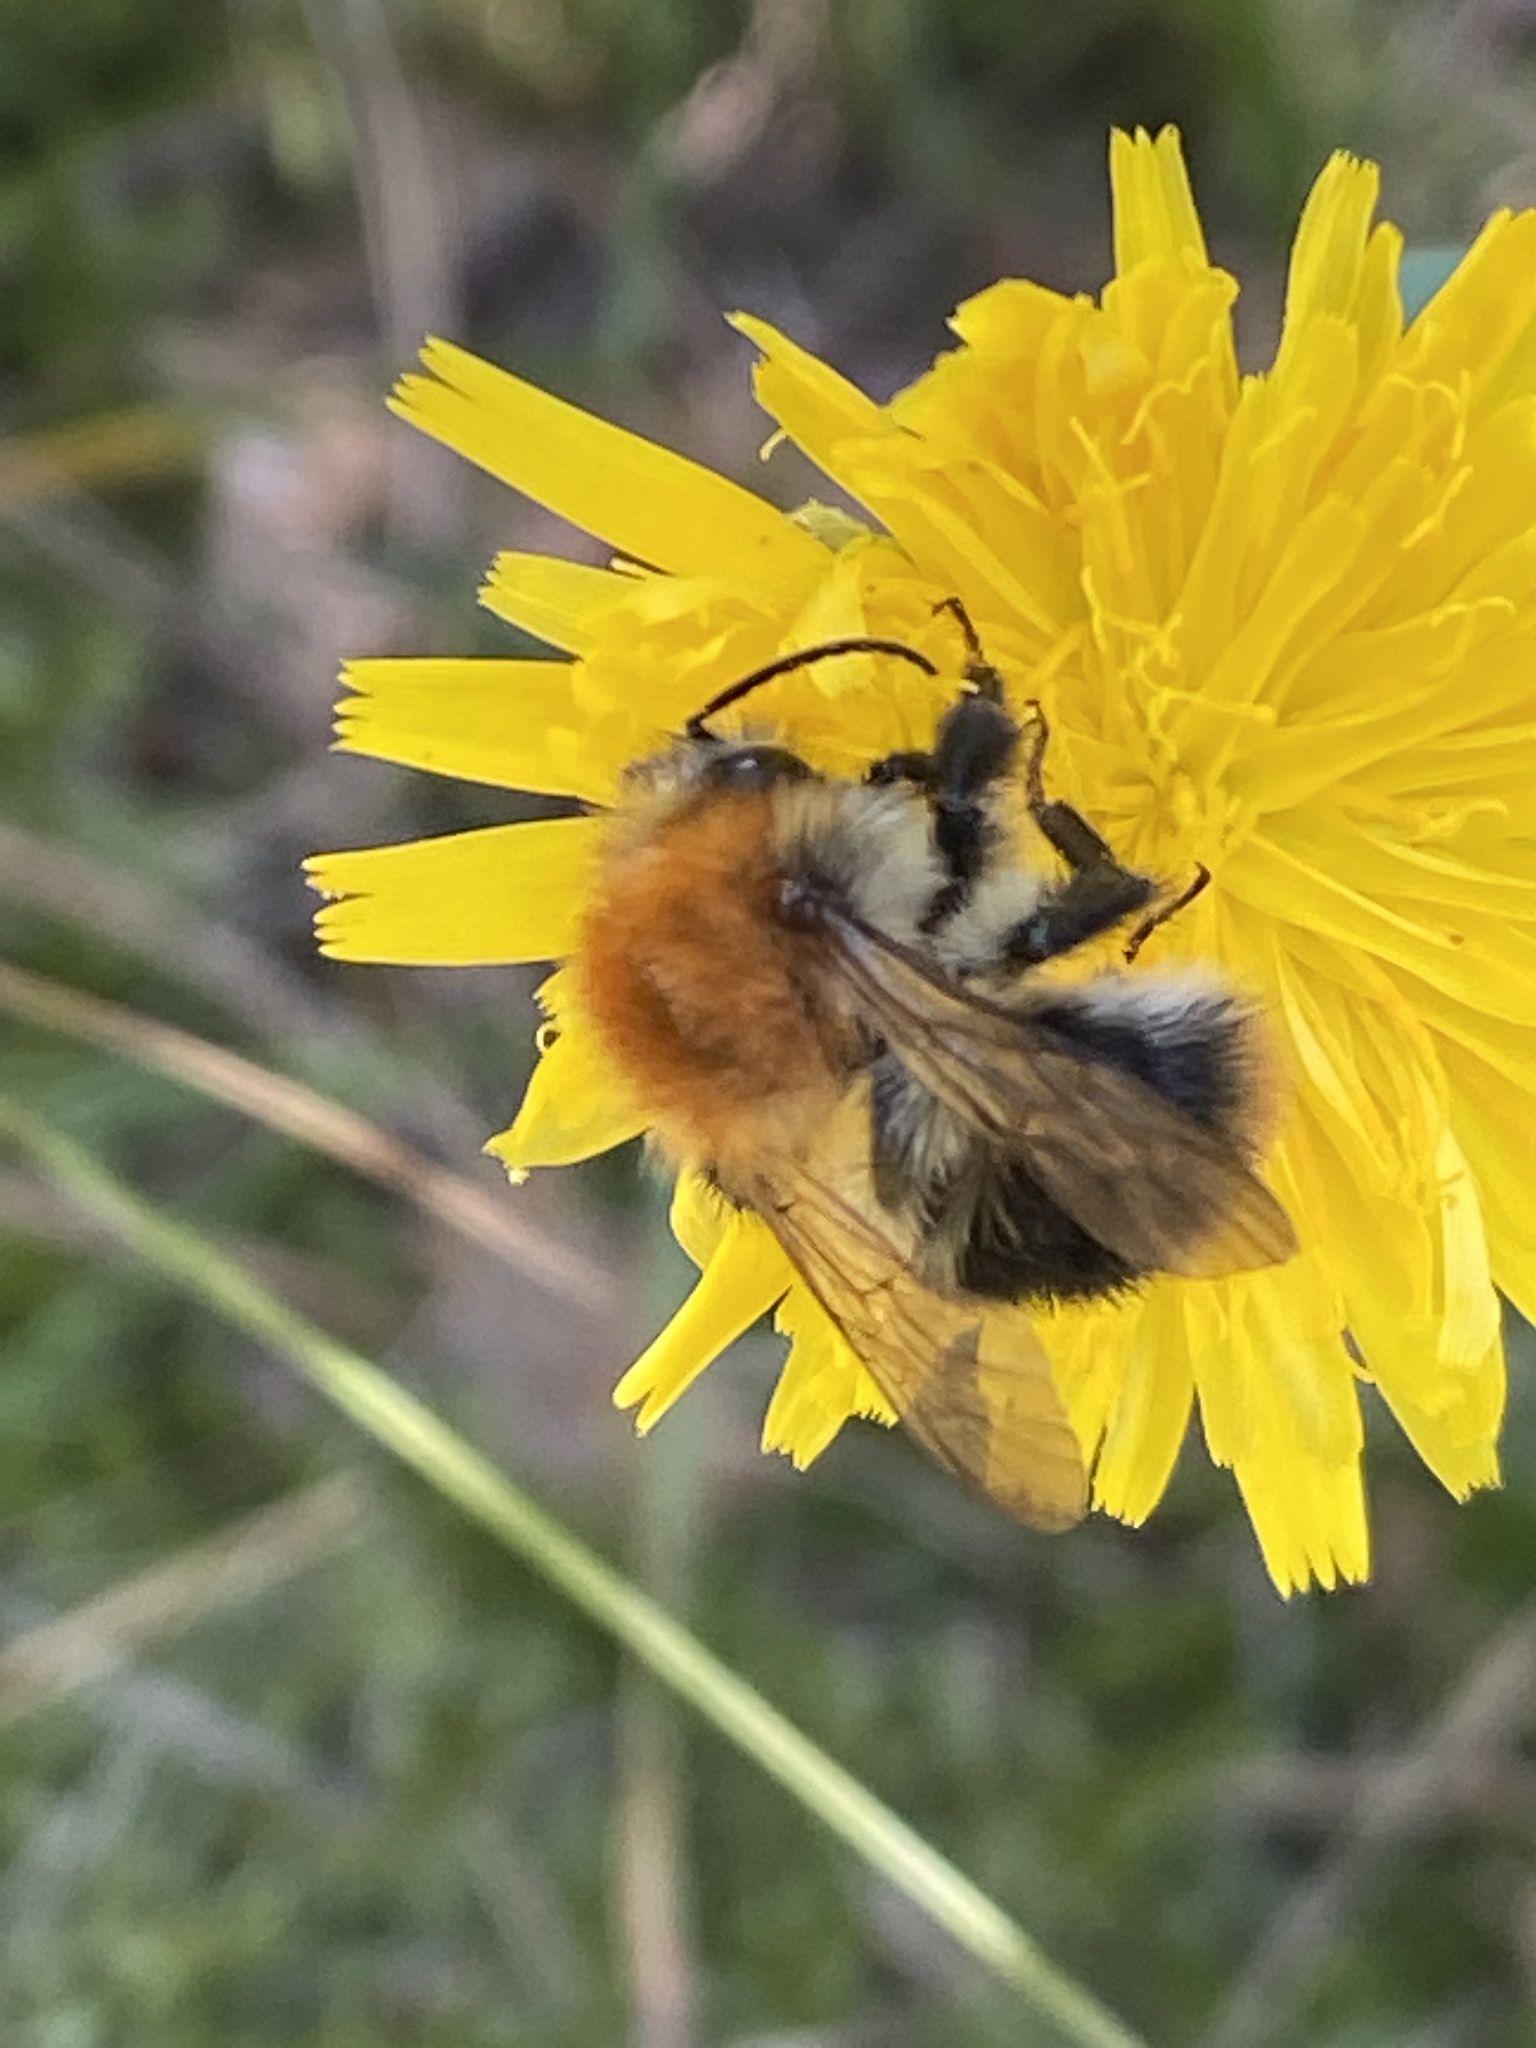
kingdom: Animalia
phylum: Arthropoda
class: Insecta
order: Hymenoptera
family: Apidae
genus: Bombus
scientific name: Bombus pascuorum
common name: Common carder bee
